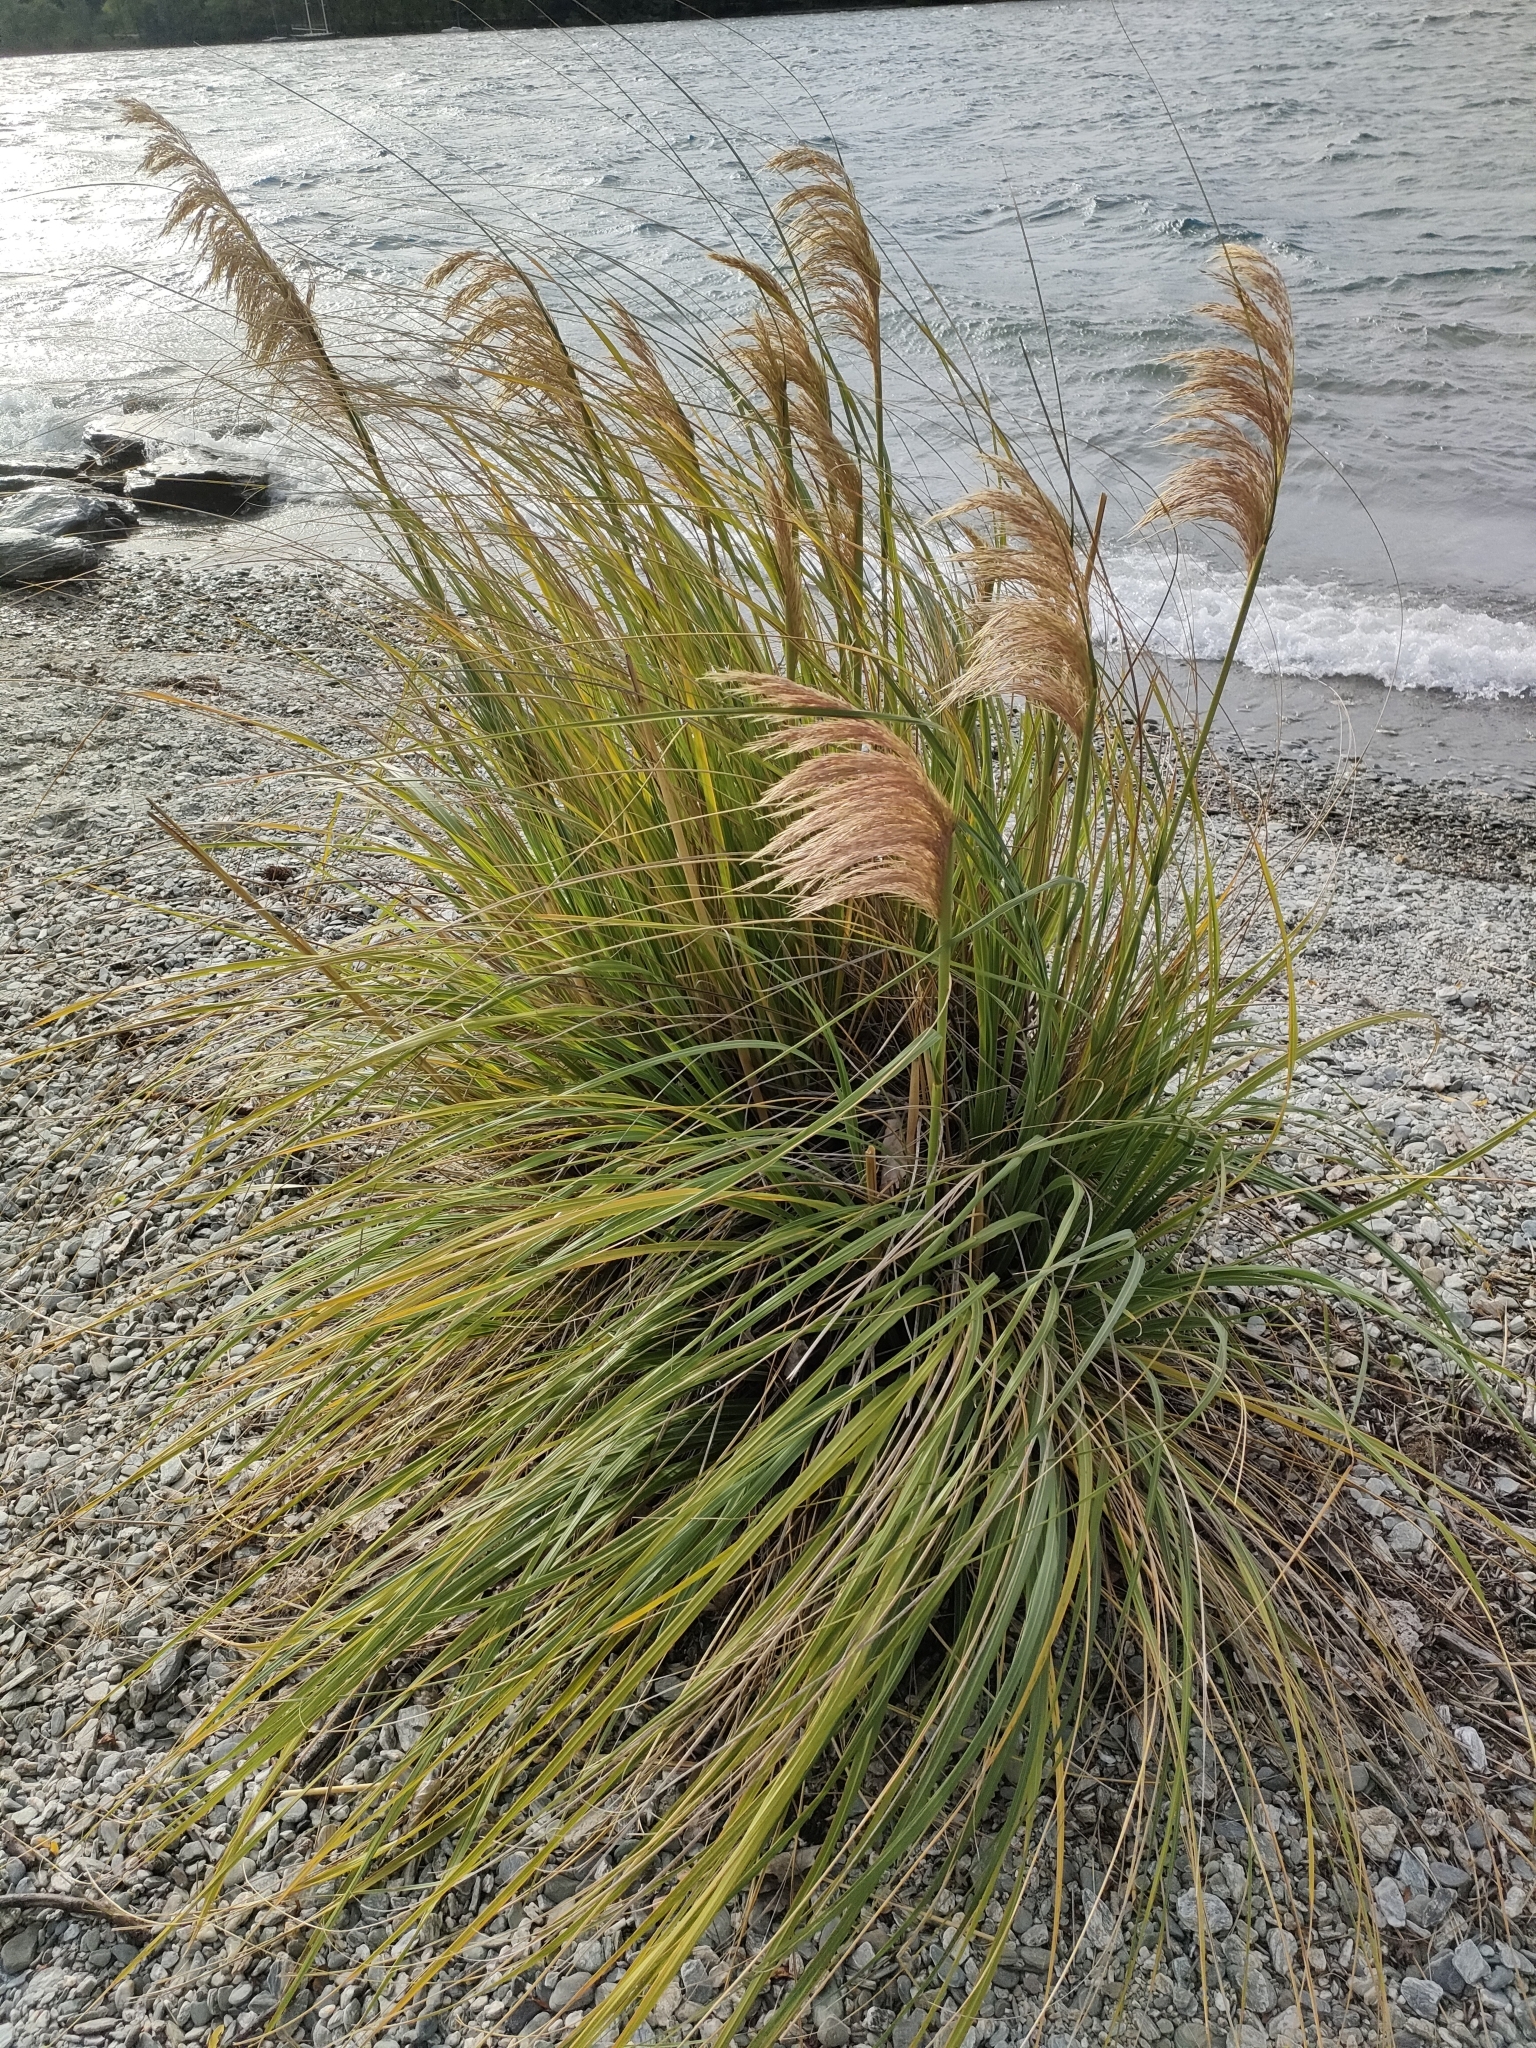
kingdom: Plantae
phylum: Tracheophyta
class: Liliopsida
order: Poales
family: Poaceae
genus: Austroderia
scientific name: Austroderia richardii
